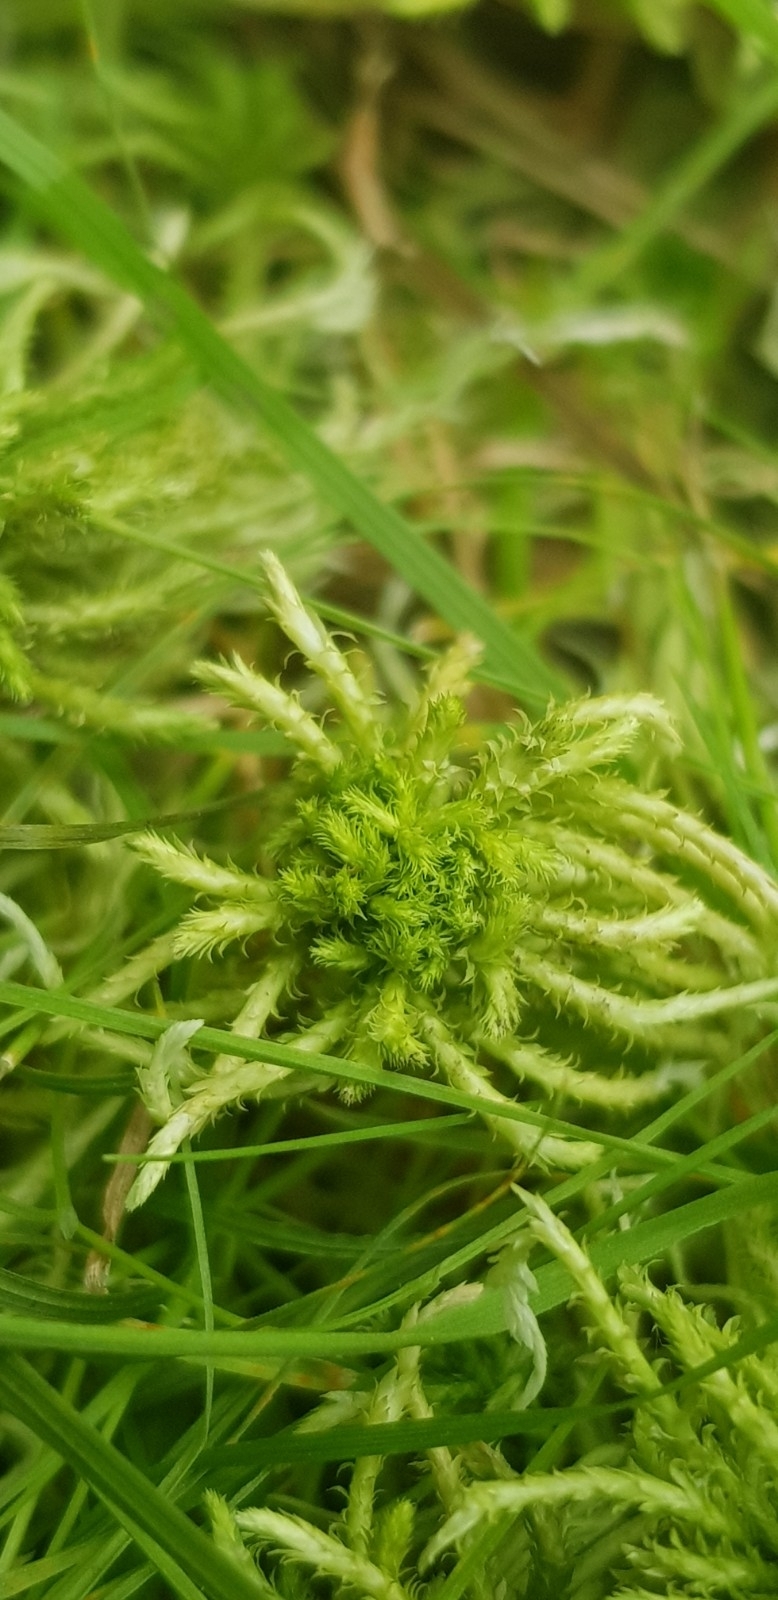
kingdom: Plantae
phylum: Bryophyta
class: Sphagnopsida
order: Sphagnales
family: Sphagnaceae
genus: Sphagnum
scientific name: Sphagnum fallax
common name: Flat-top peat moss
